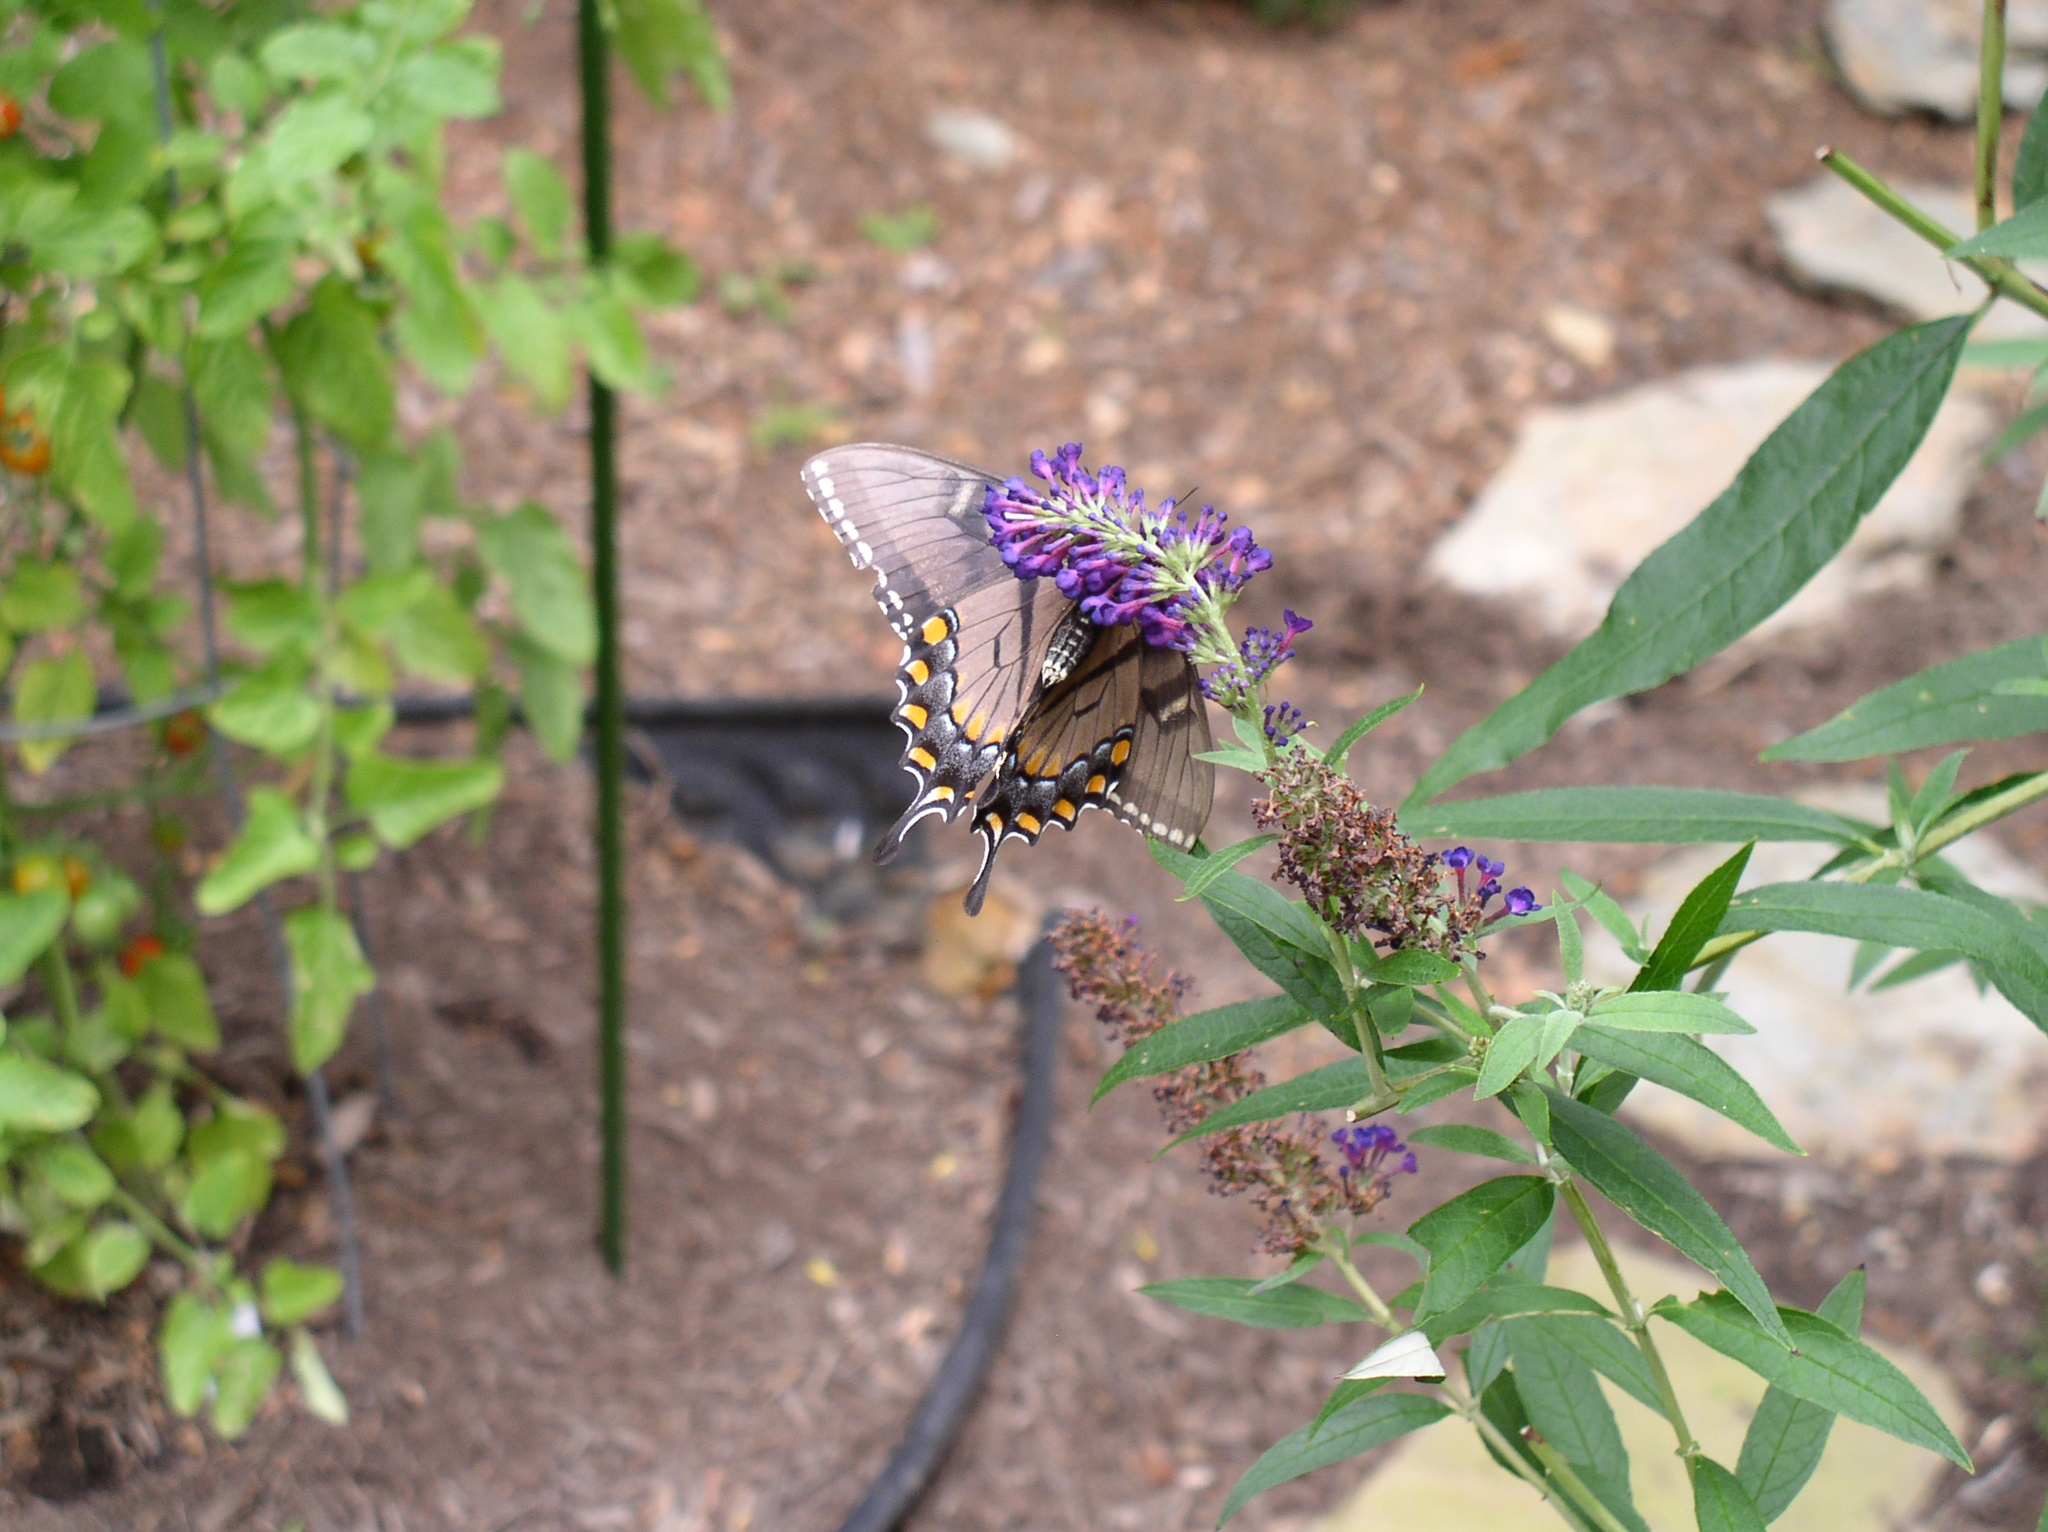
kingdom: Animalia
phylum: Arthropoda
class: Insecta
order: Lepidoptera
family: Papilionidae
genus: Papilio
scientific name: Papilio glaucus
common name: Tiger swallowtail
